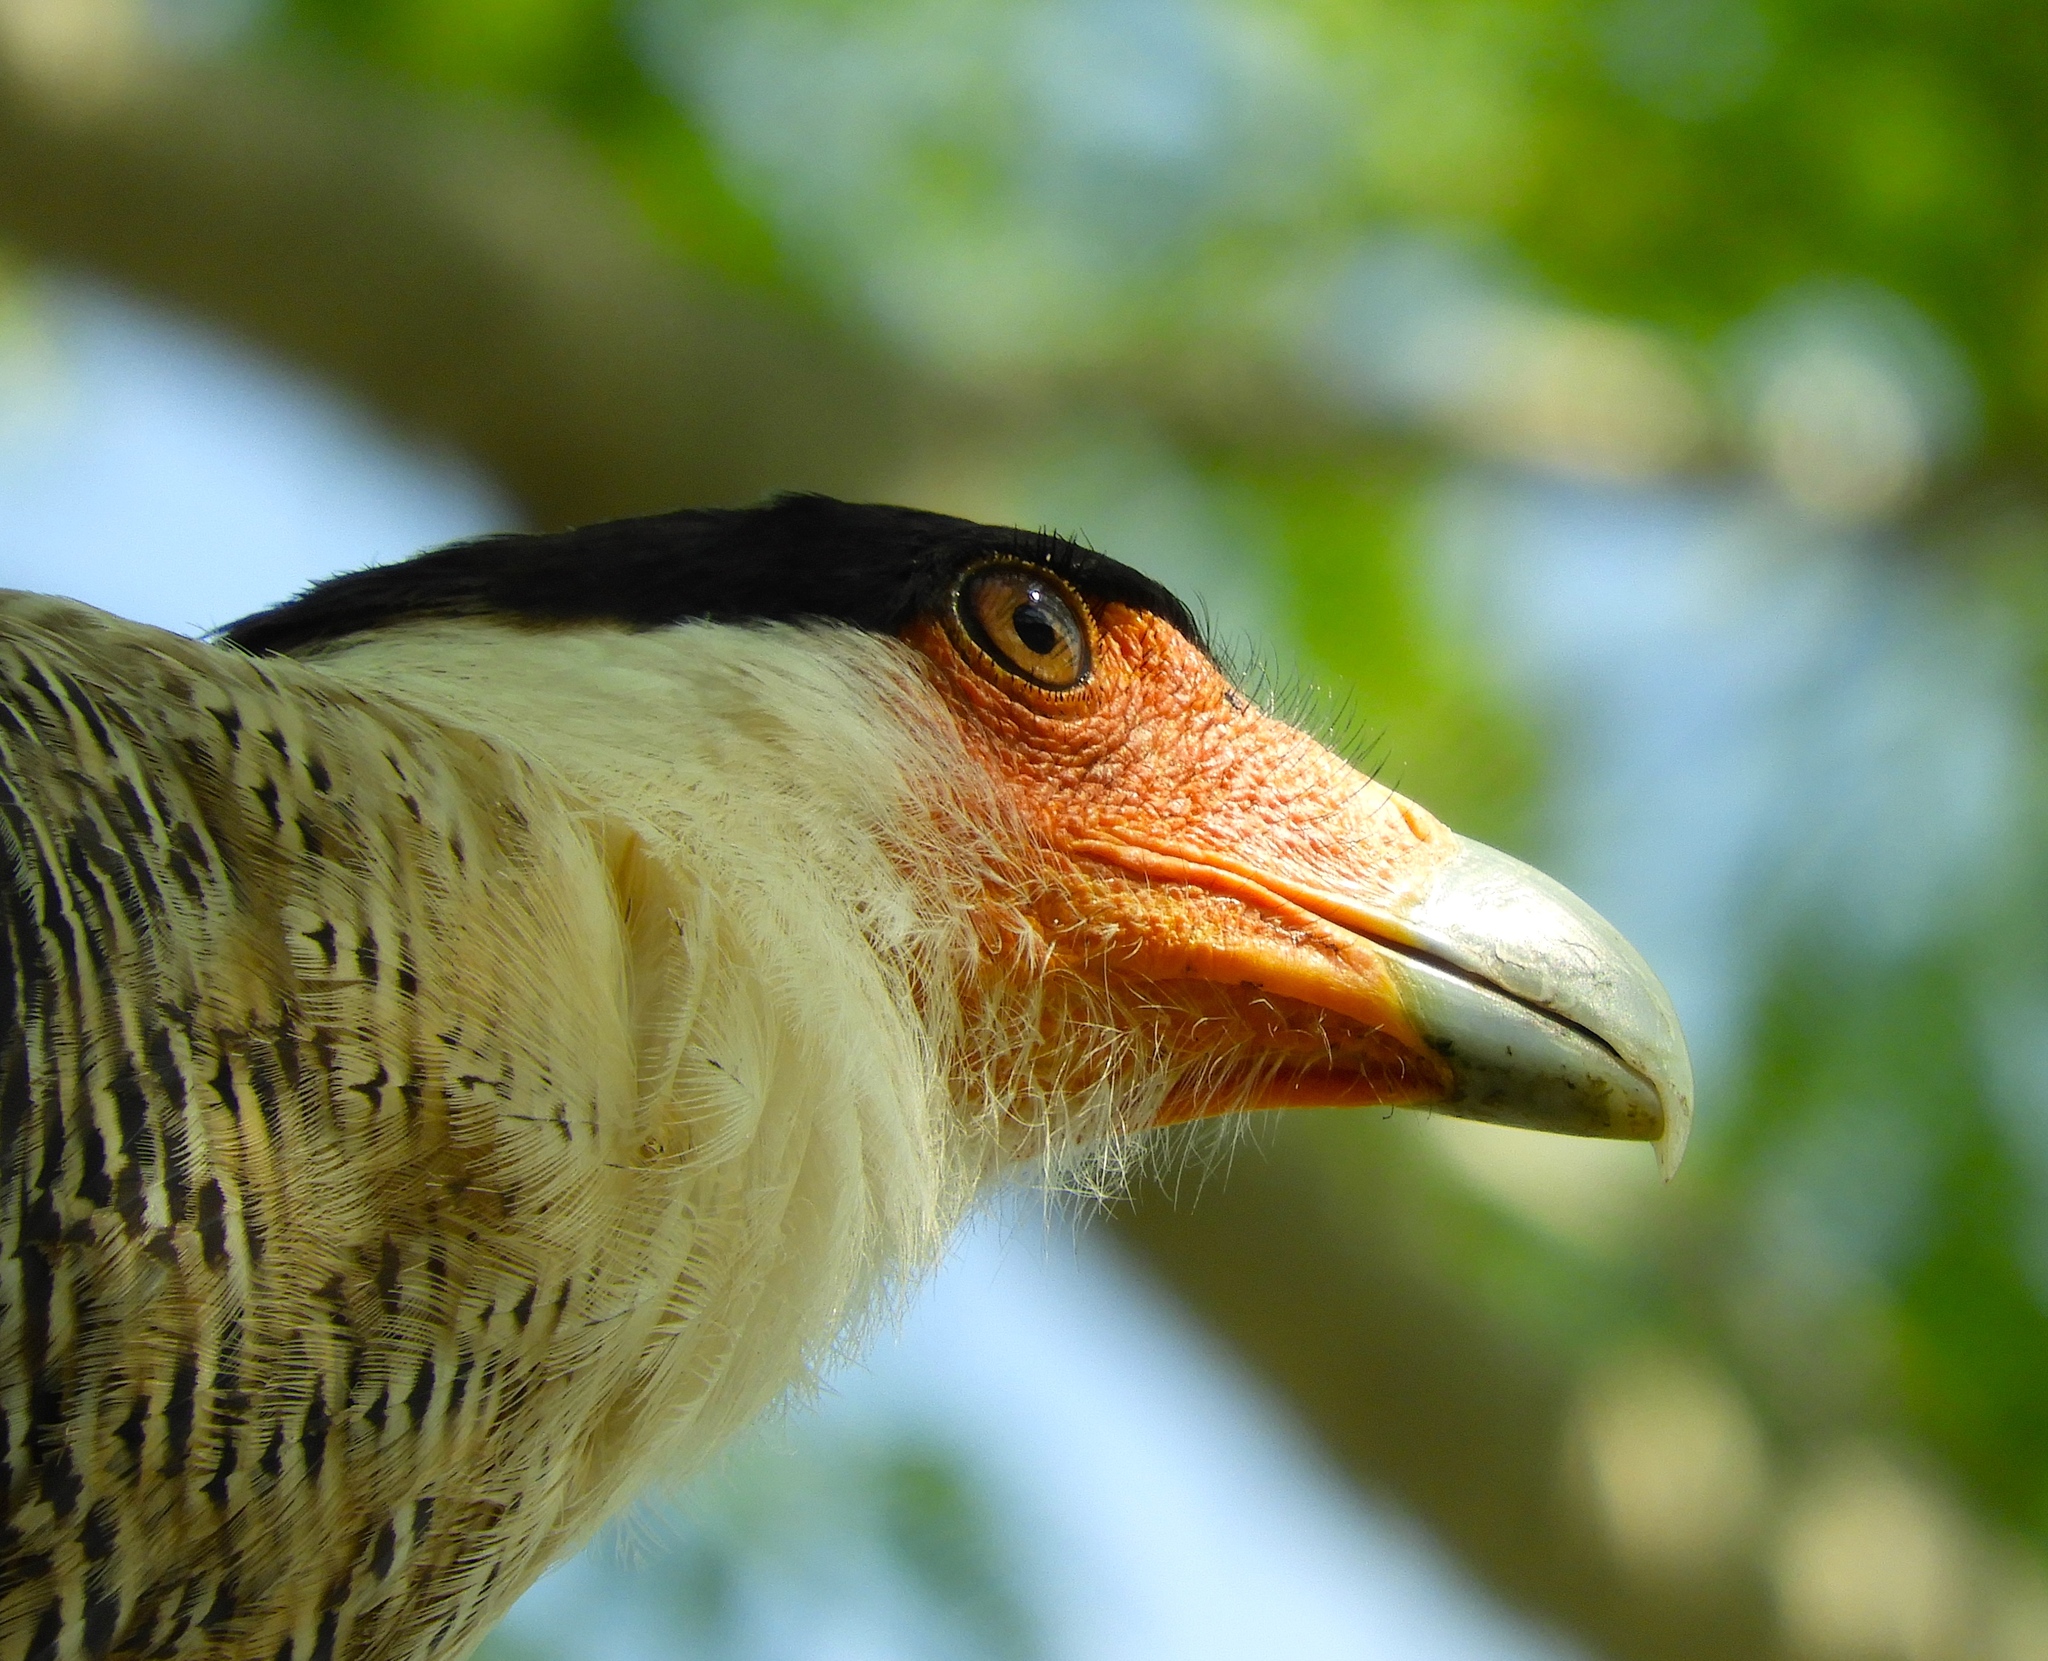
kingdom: Animalia
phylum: Chordata
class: Aves
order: Falconiformes
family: Falconidae
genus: Caracara
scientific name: Caracara plancus
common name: Southern caracara
